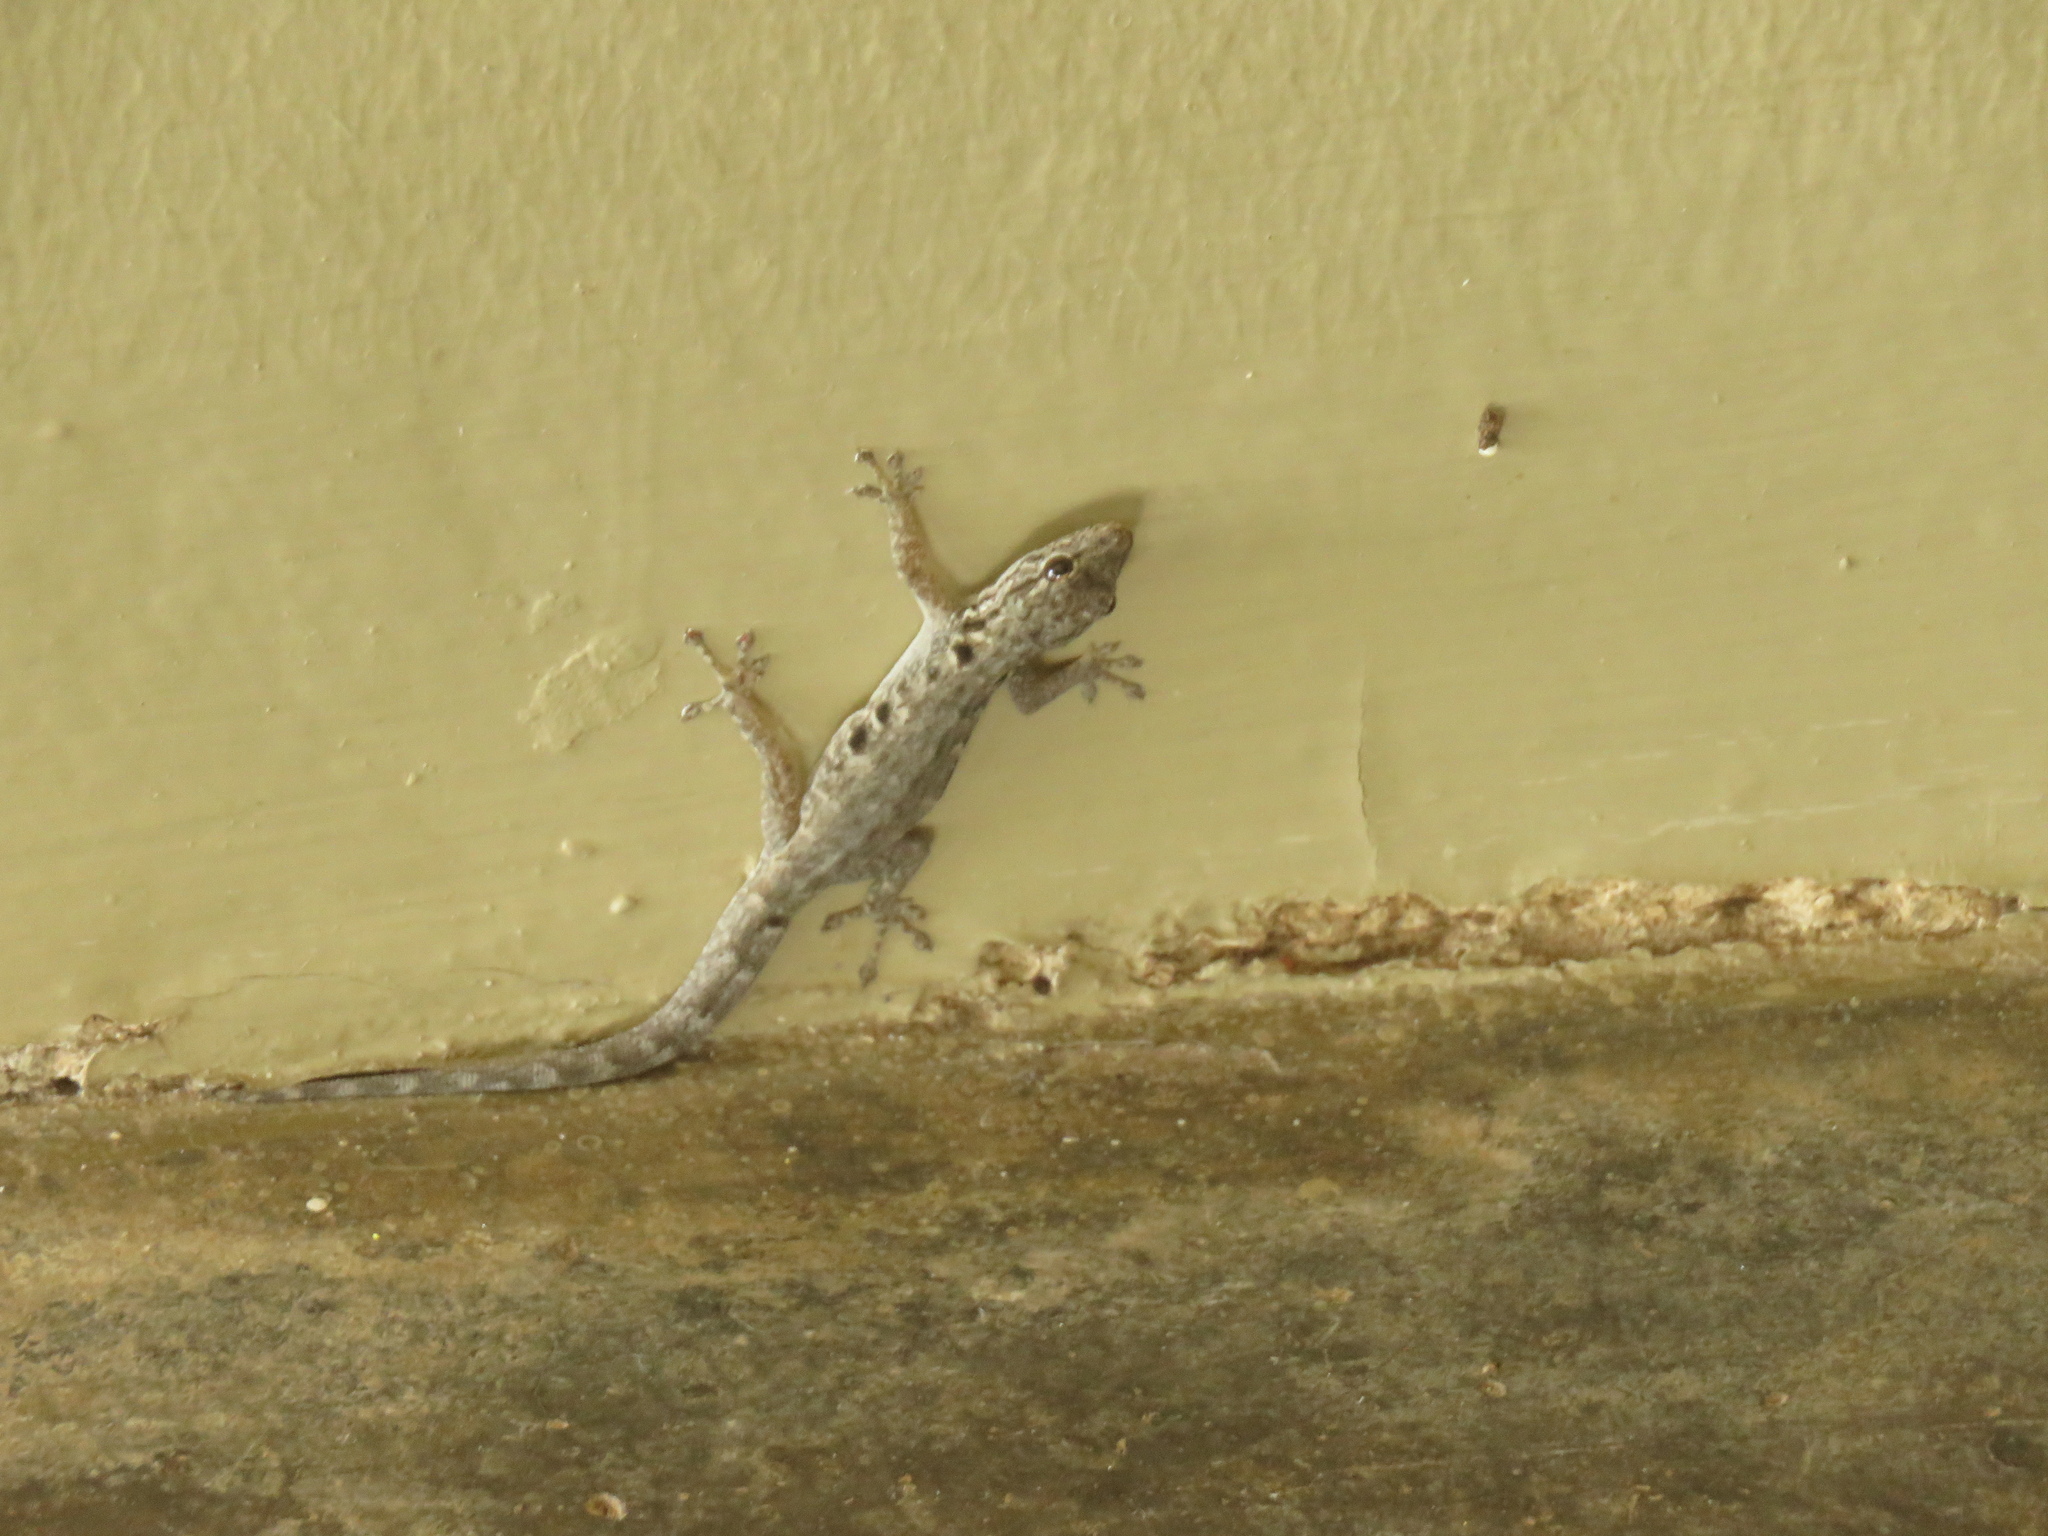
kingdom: Animalia
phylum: Chordata
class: Squamata
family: Gekkonidae
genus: Lygodactylus
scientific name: Lygodactylus stevensoni
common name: Stevenson's dwarf gecko
